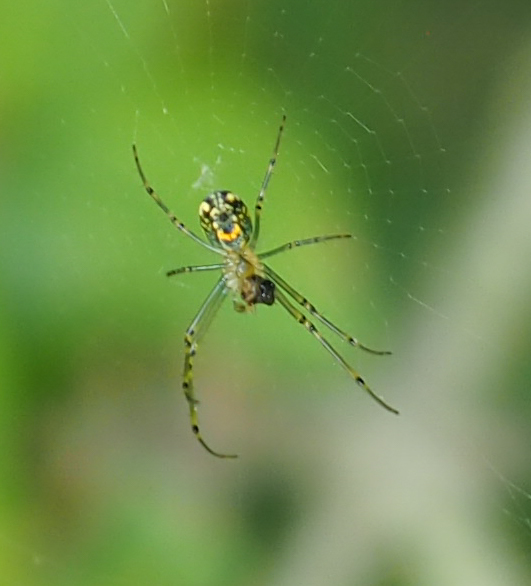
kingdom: Animalia
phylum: Arthropoda
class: Arachnida
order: Araneae
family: Tetragnathidae
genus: Leucauge
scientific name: Leucauge venusta
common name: Longjawed orb weavers
